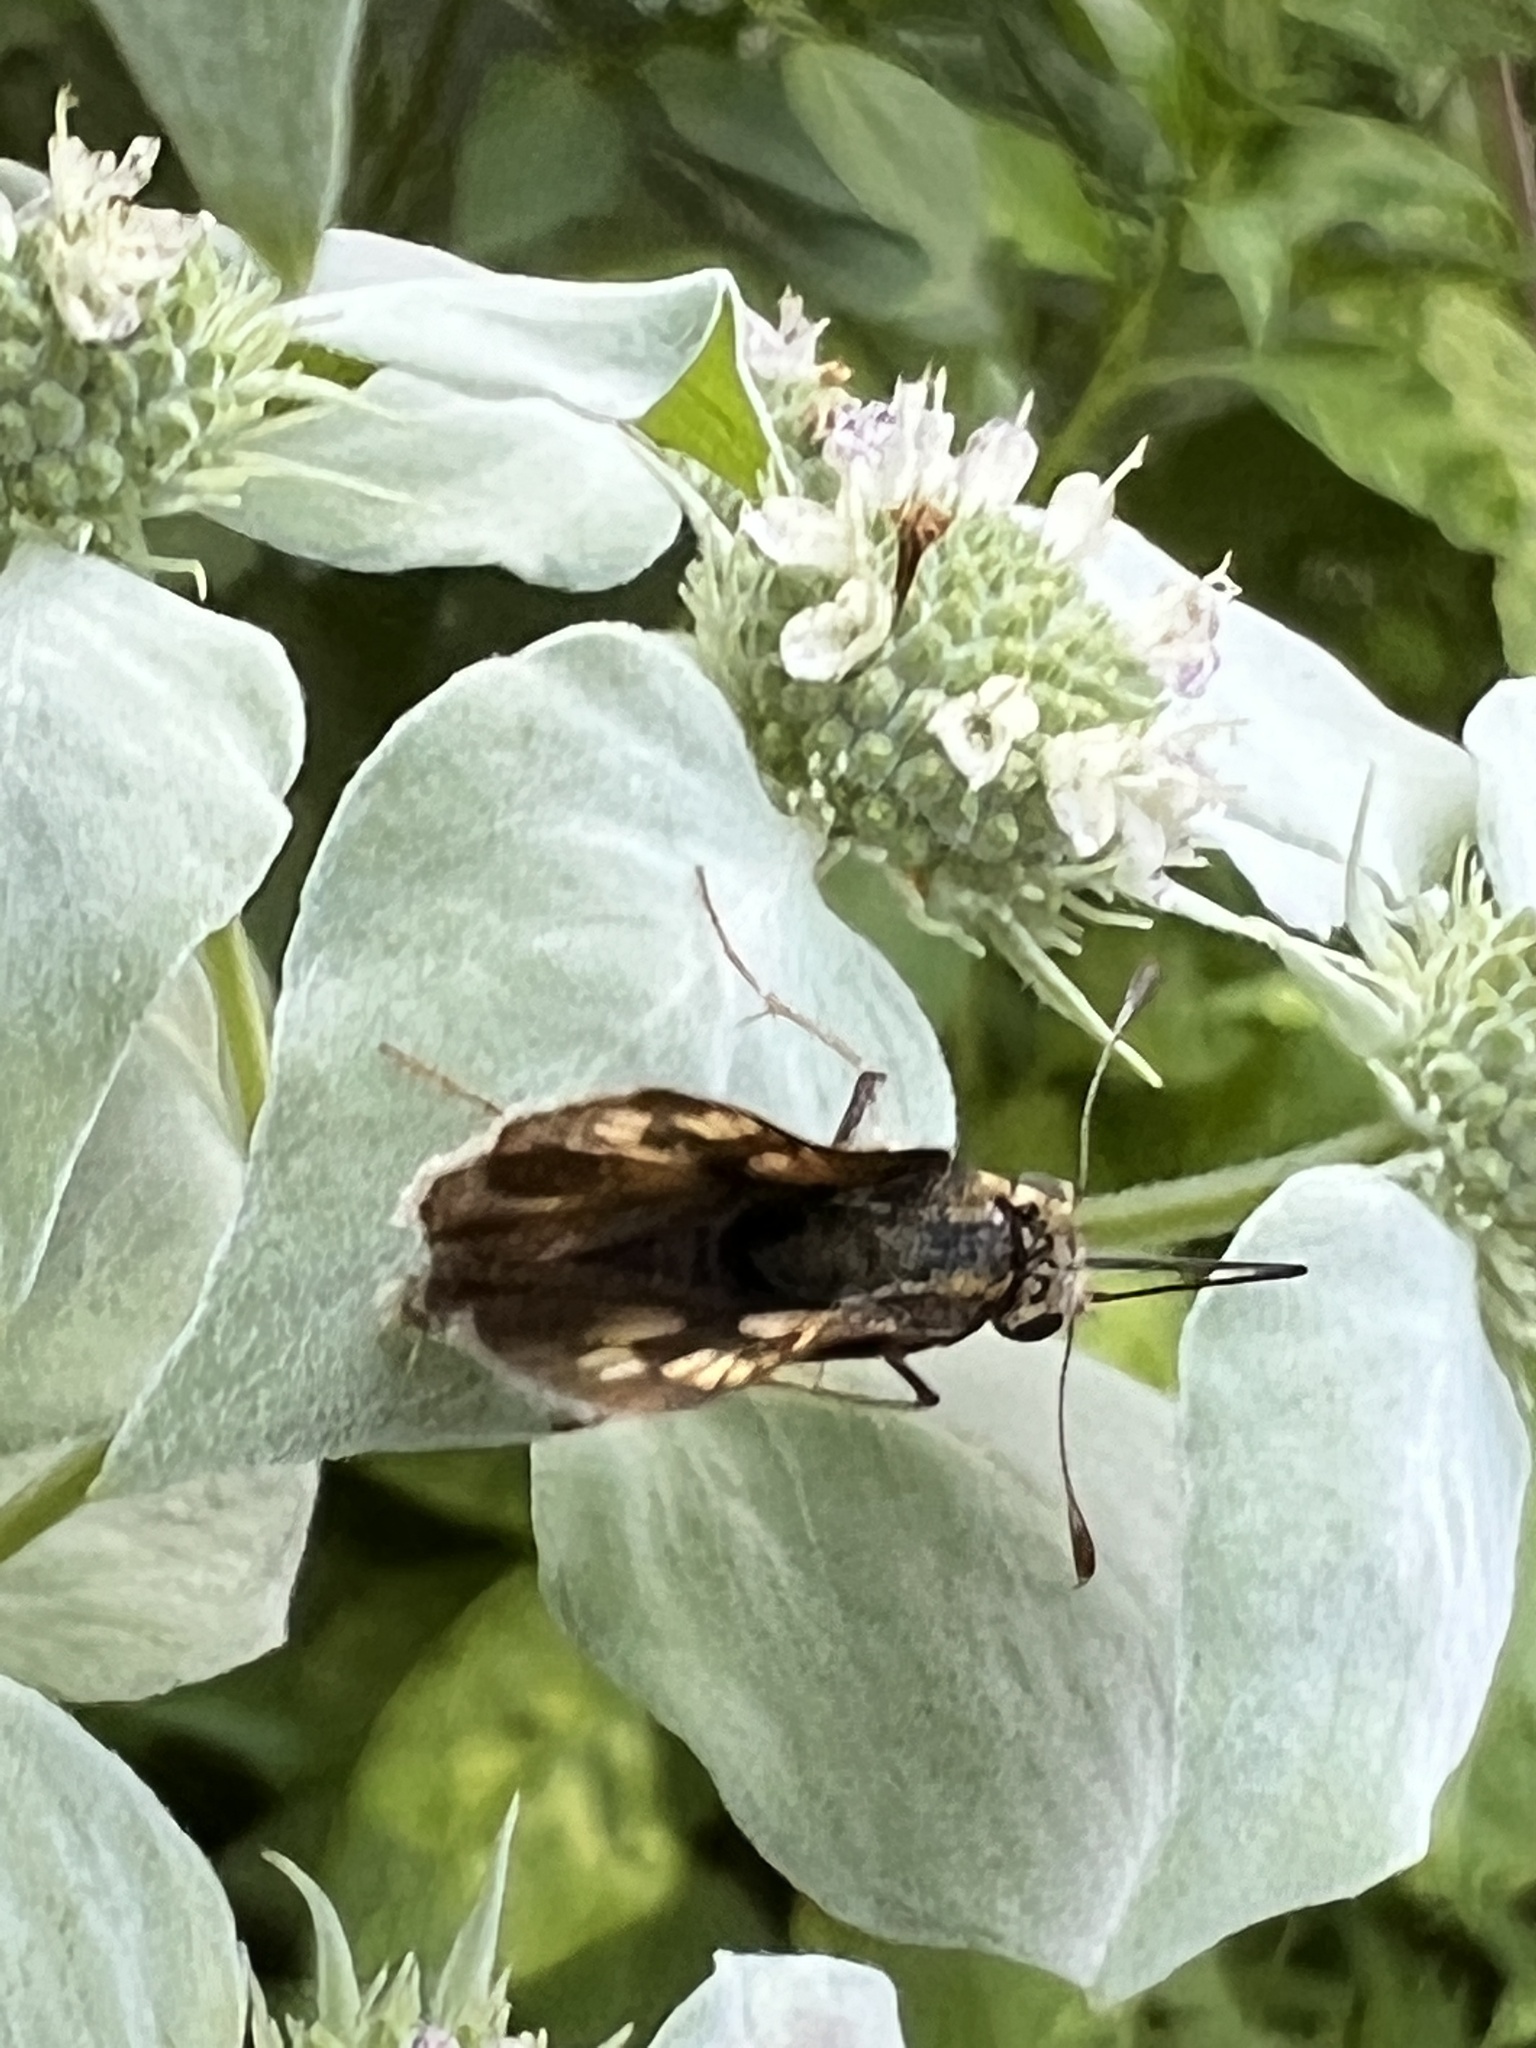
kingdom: Animalia
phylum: Arthropoda
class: Insecta
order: Lepidoptera
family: Hesperiidae
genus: Polites
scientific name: Polites coras
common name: Peck's skipper
